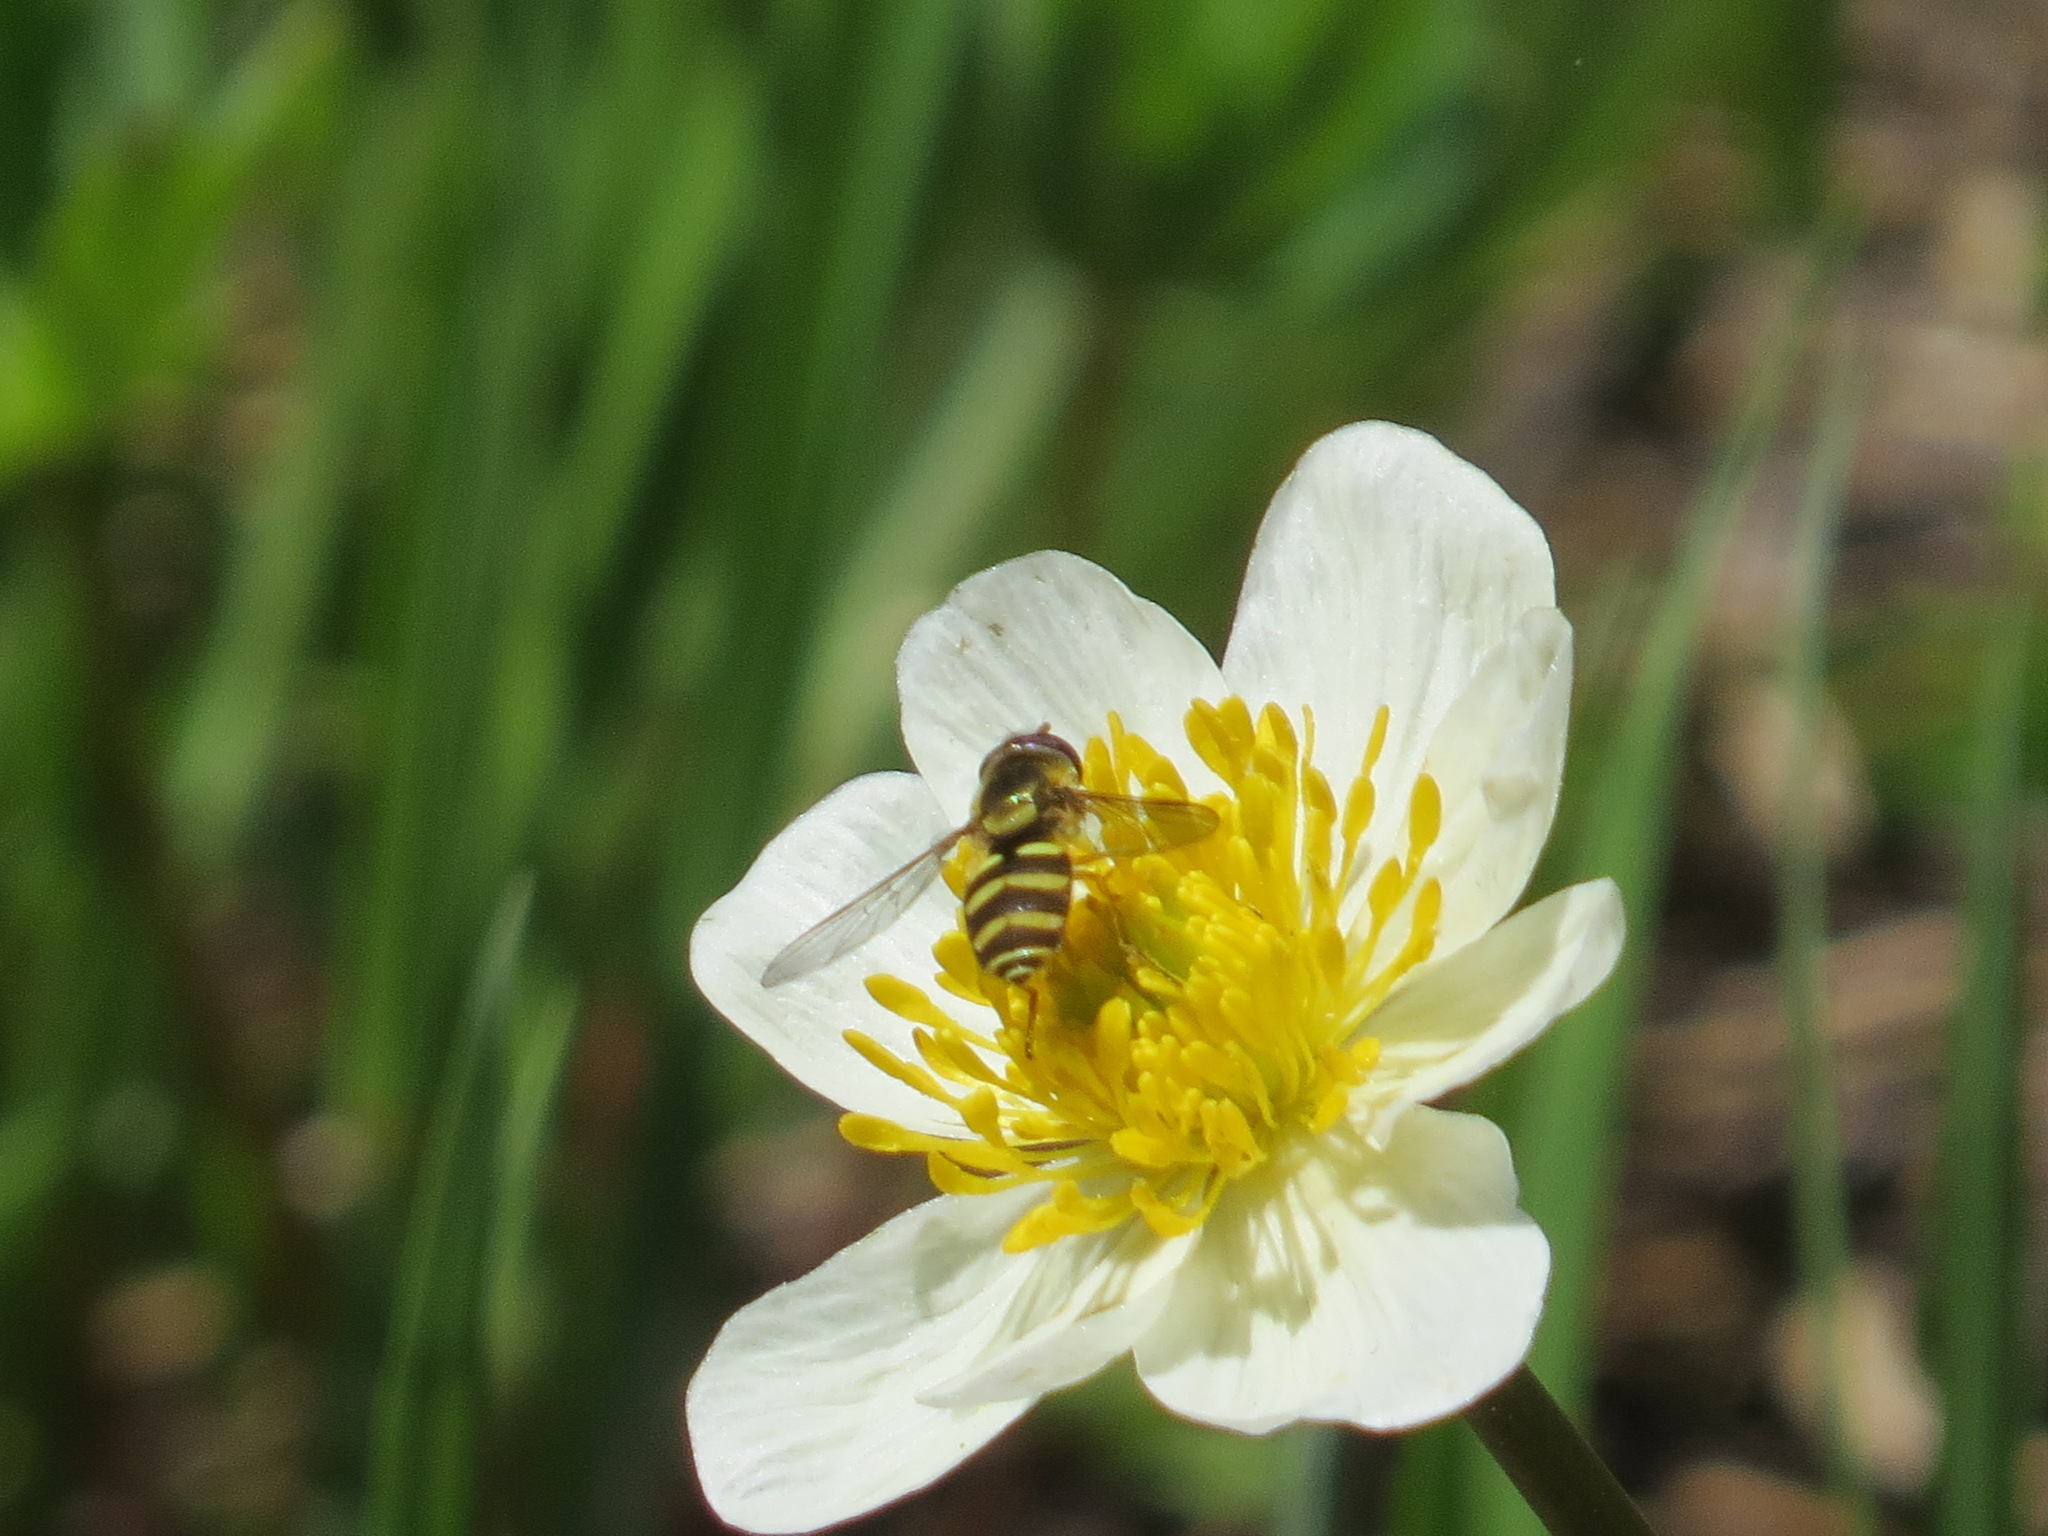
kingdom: Animalia
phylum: Arthropoda
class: Insecta
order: Diptera
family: Syrphidae
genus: Syrphus
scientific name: Syrphus opinator
